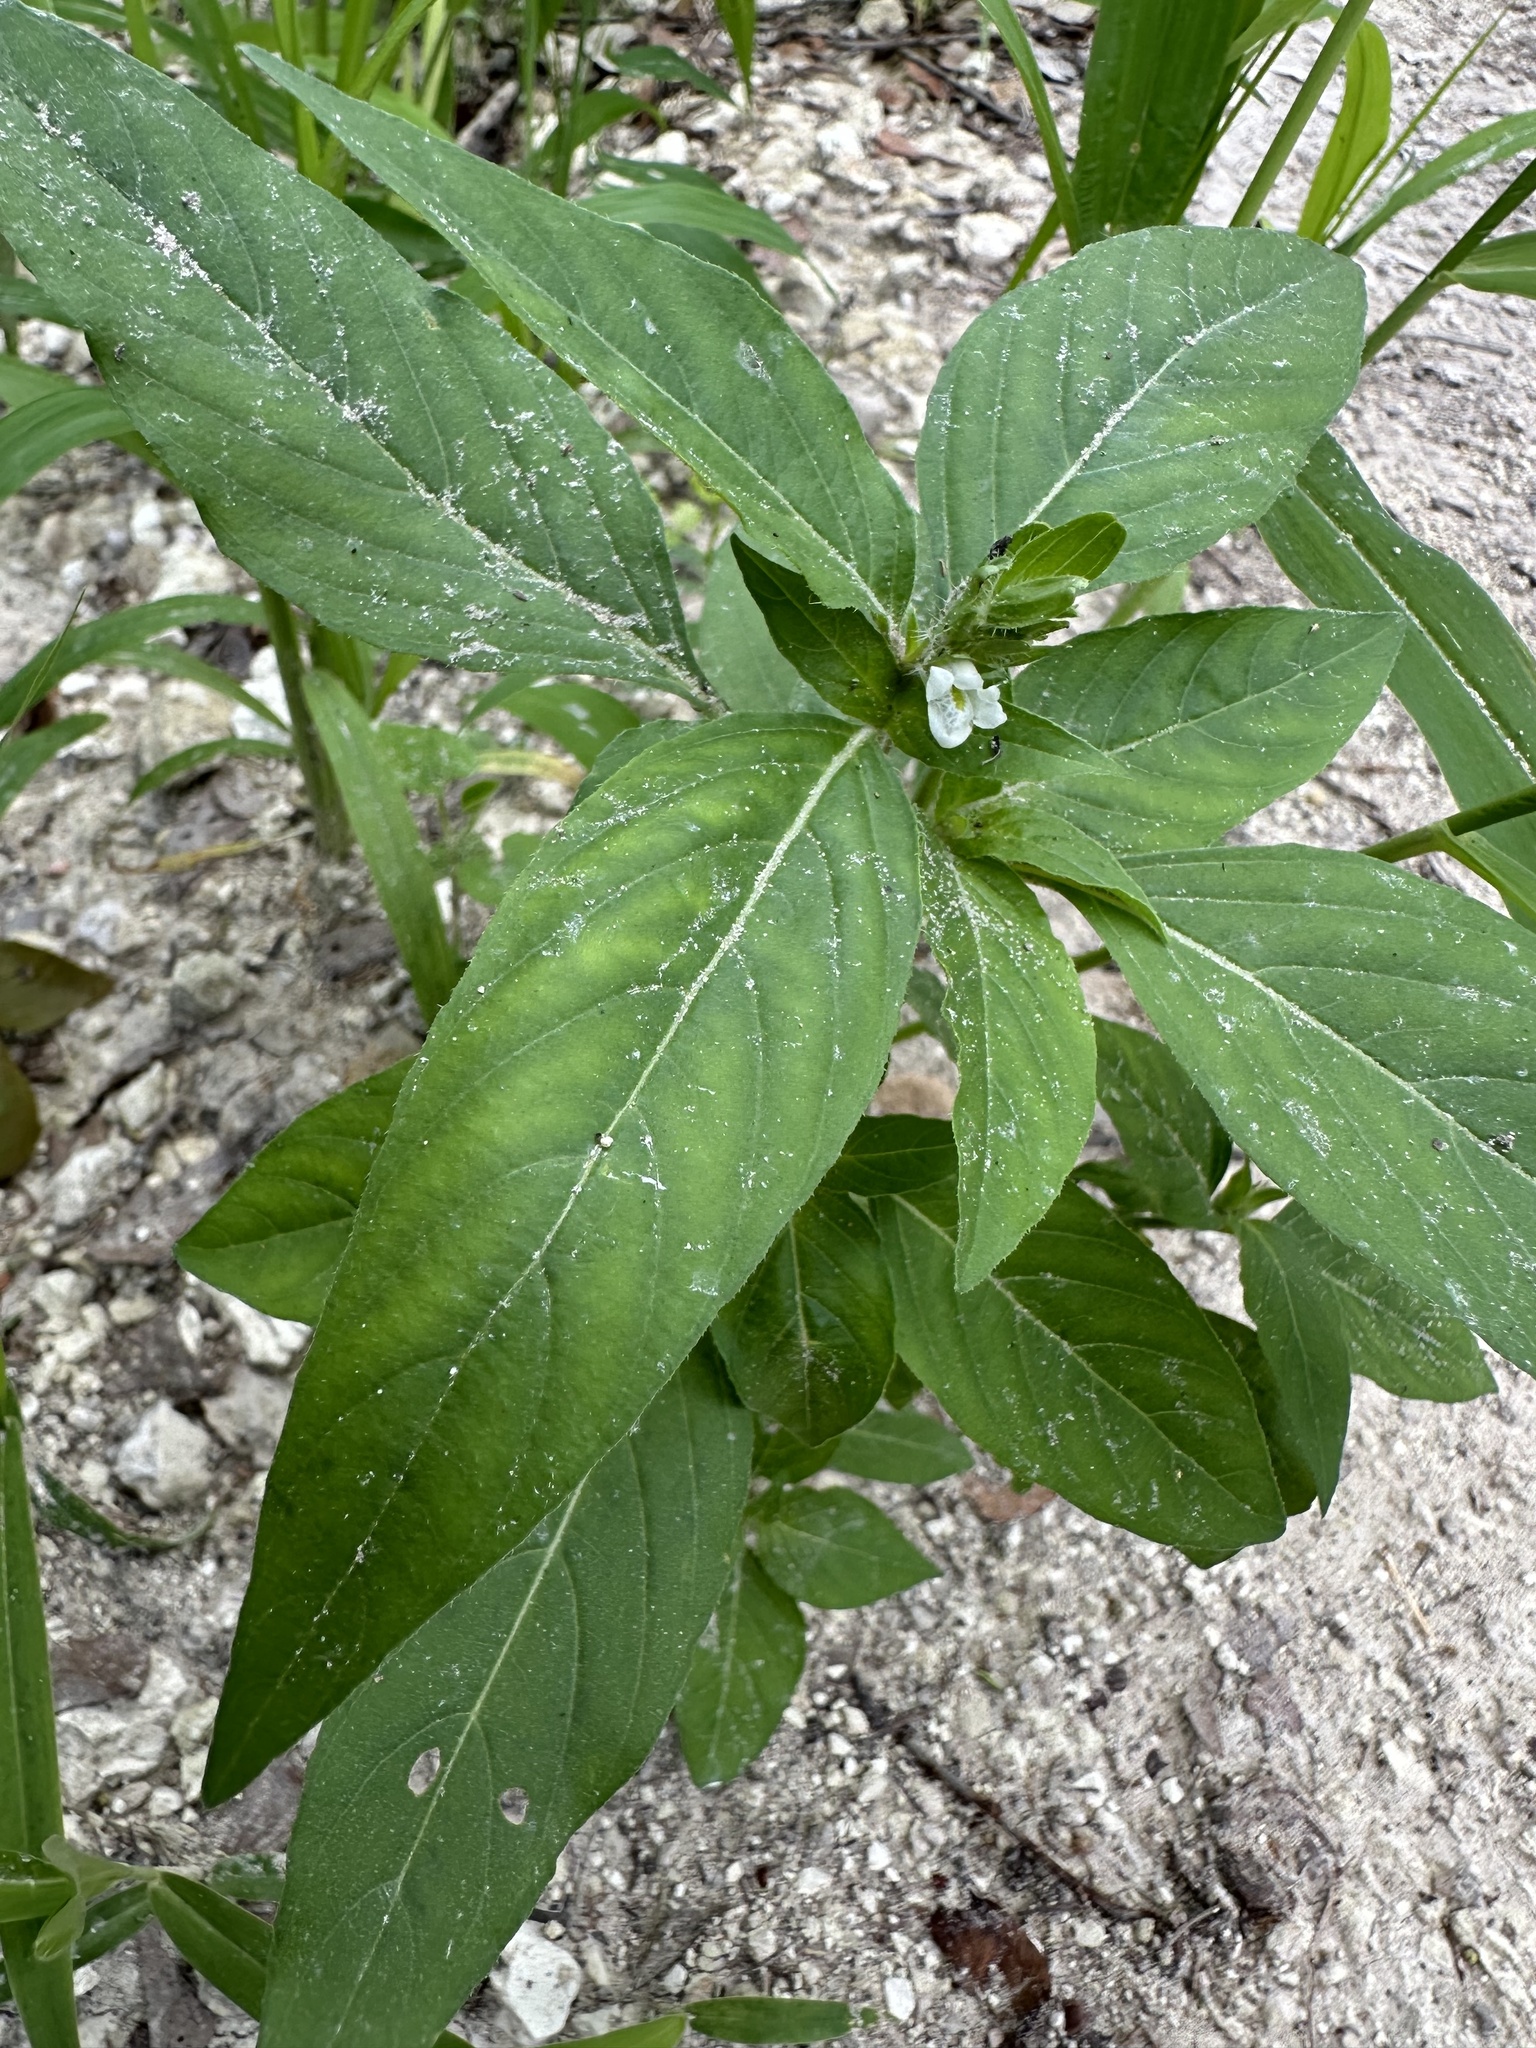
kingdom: Plantae
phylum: Tracheophyta
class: Magnoliopsida
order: Lamiales
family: Acanthaceae
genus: Asystasia
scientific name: Asystasia mysorensis
